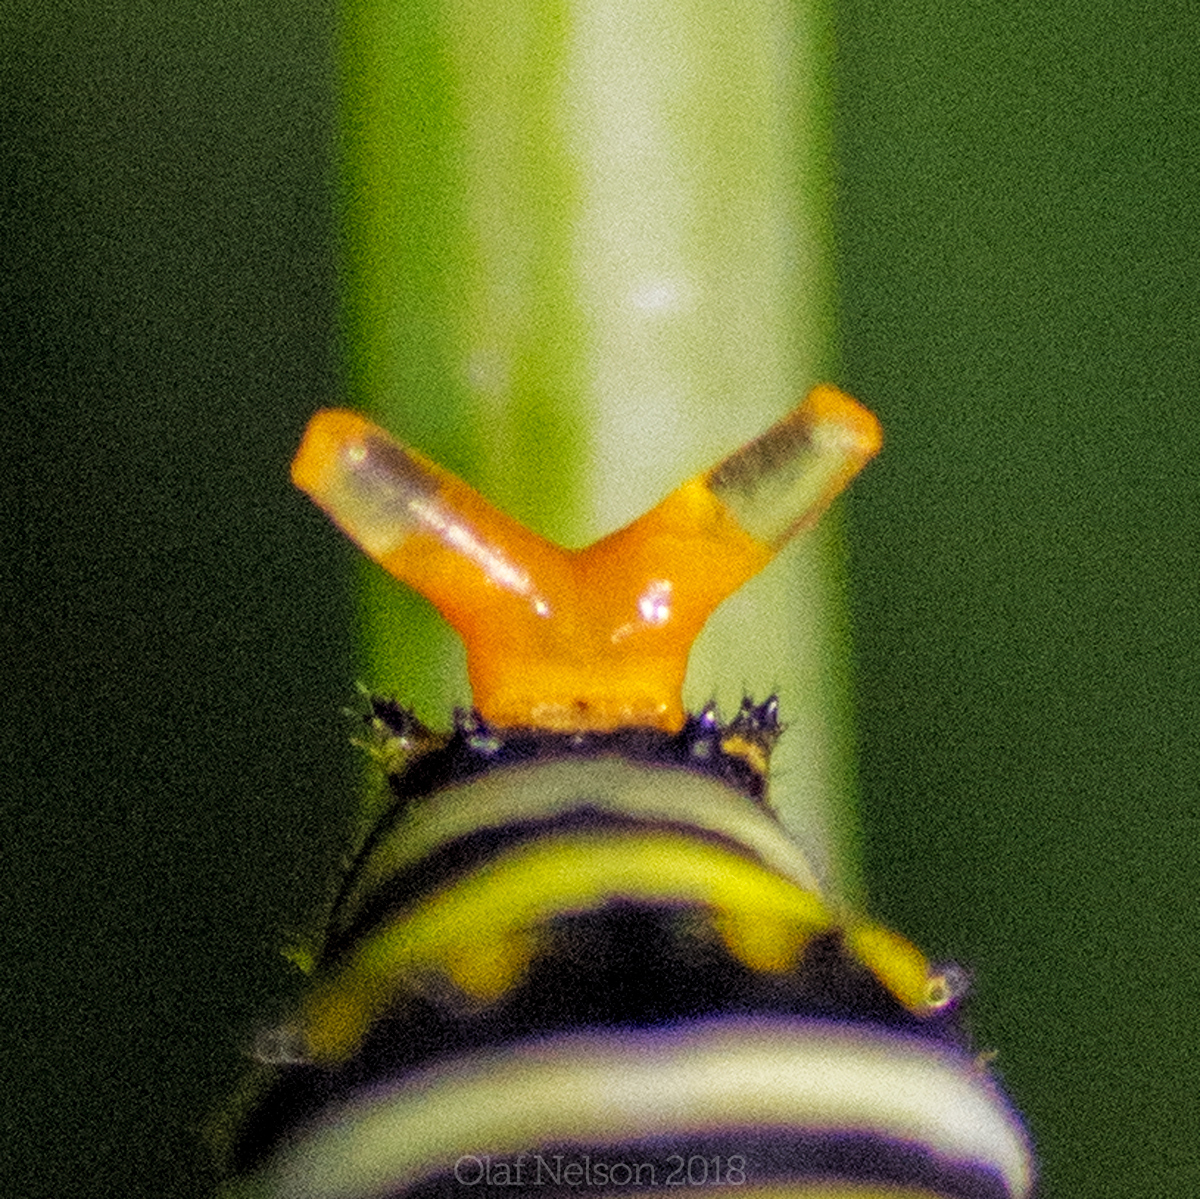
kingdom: Animalia
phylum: Arthropoda
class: Insecta
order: Lepidoptera
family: Papilionidae
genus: Papilio
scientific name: Papilio polyxenes
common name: Black swallowtail
